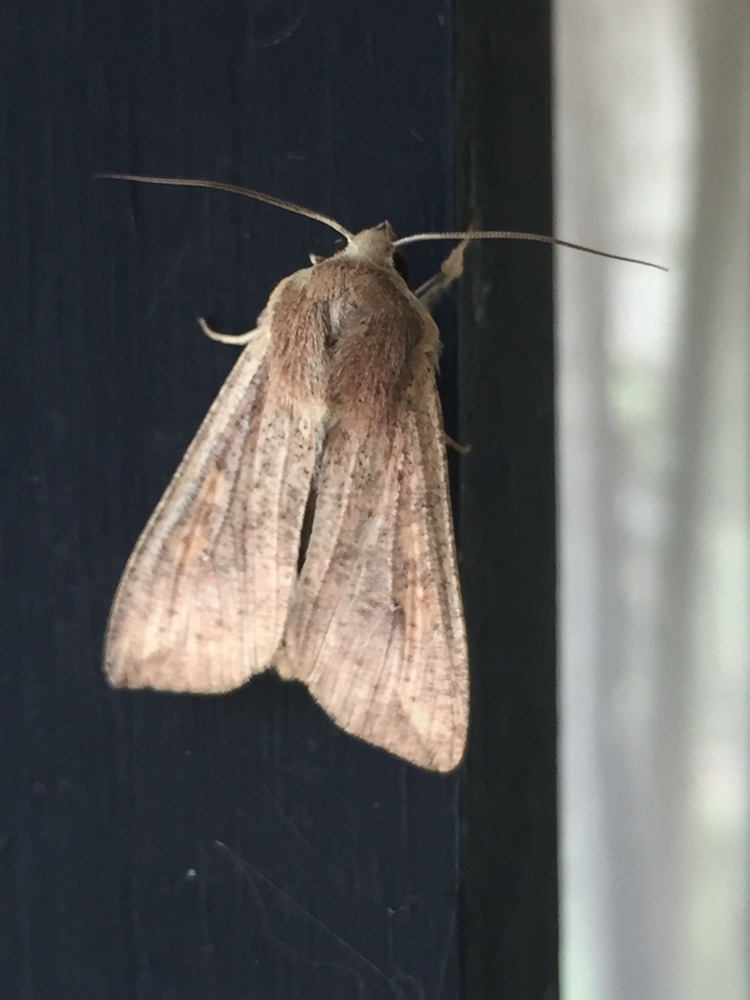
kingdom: Animalia
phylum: Arthropoda
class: Insecta
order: Lepidoptera
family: Noctuidae
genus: Mythimna
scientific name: Mythimna unipuncta
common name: White-speck
